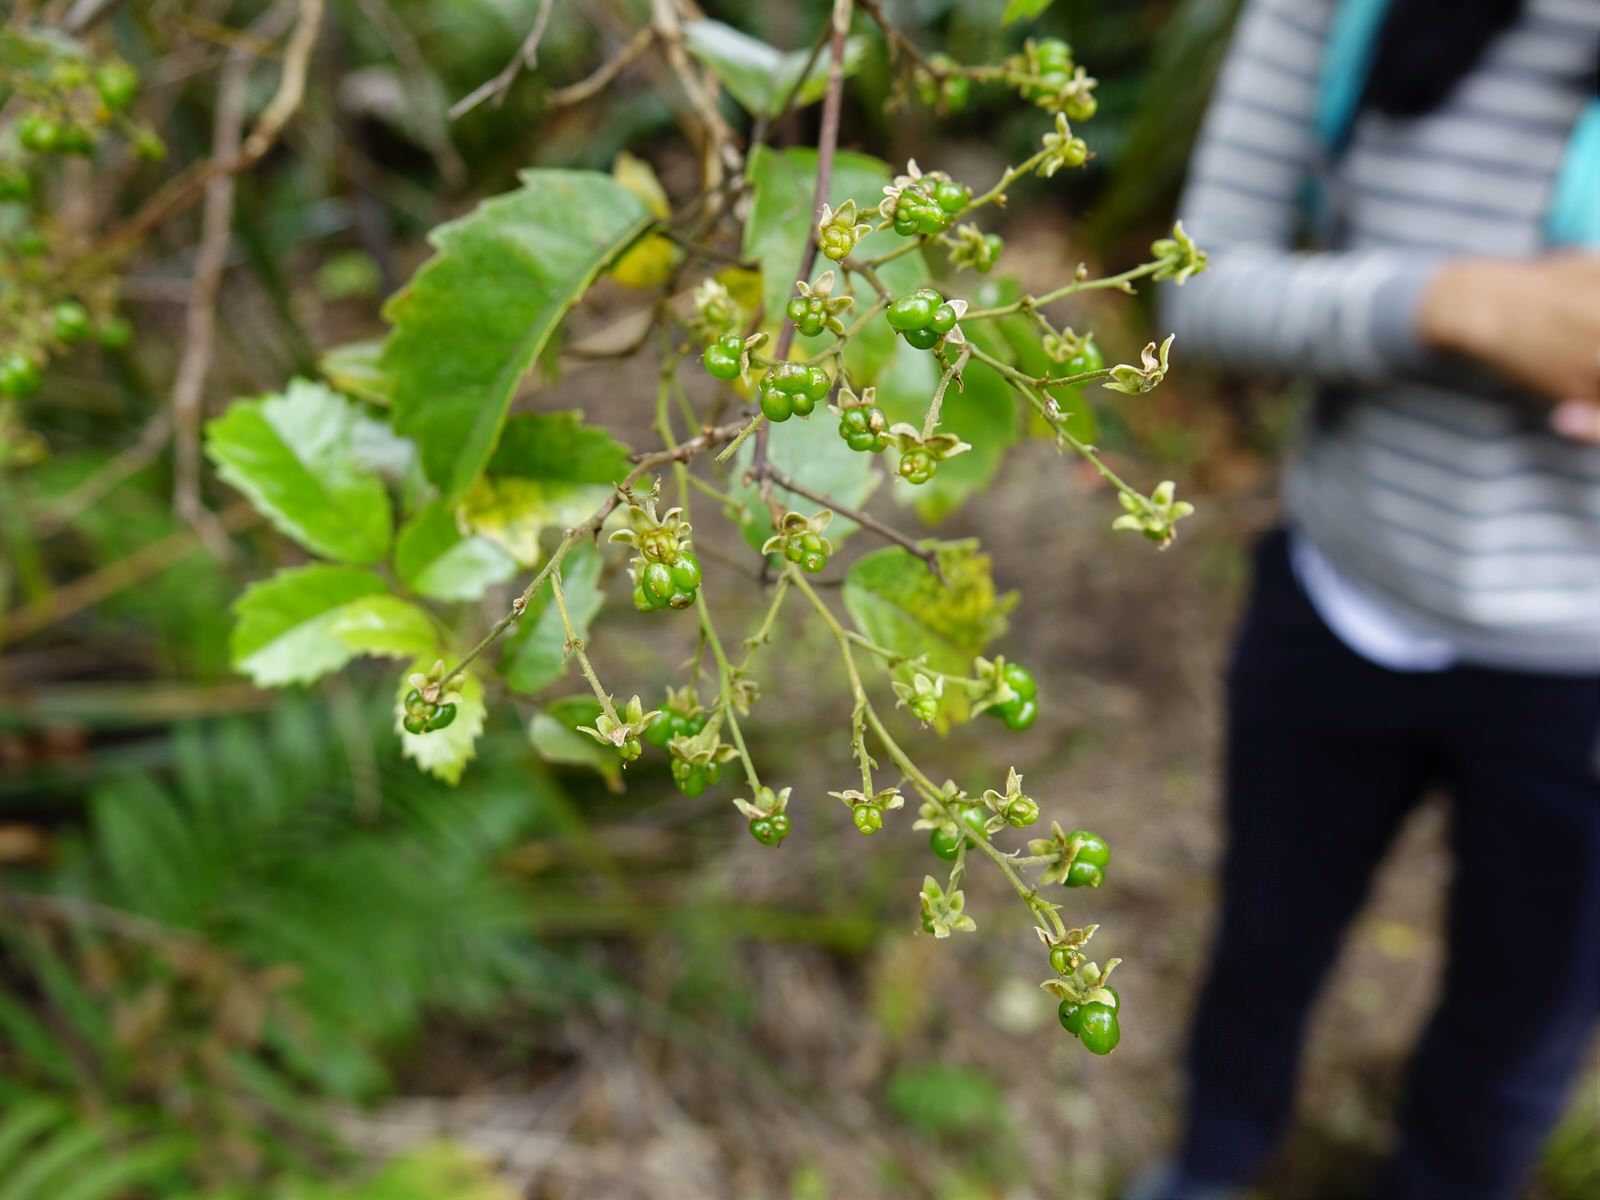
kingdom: Plantae
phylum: Tracheophyta
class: Magnoliopsida
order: Rosales
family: Rosaceae
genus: Rubus
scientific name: Rubus australis
